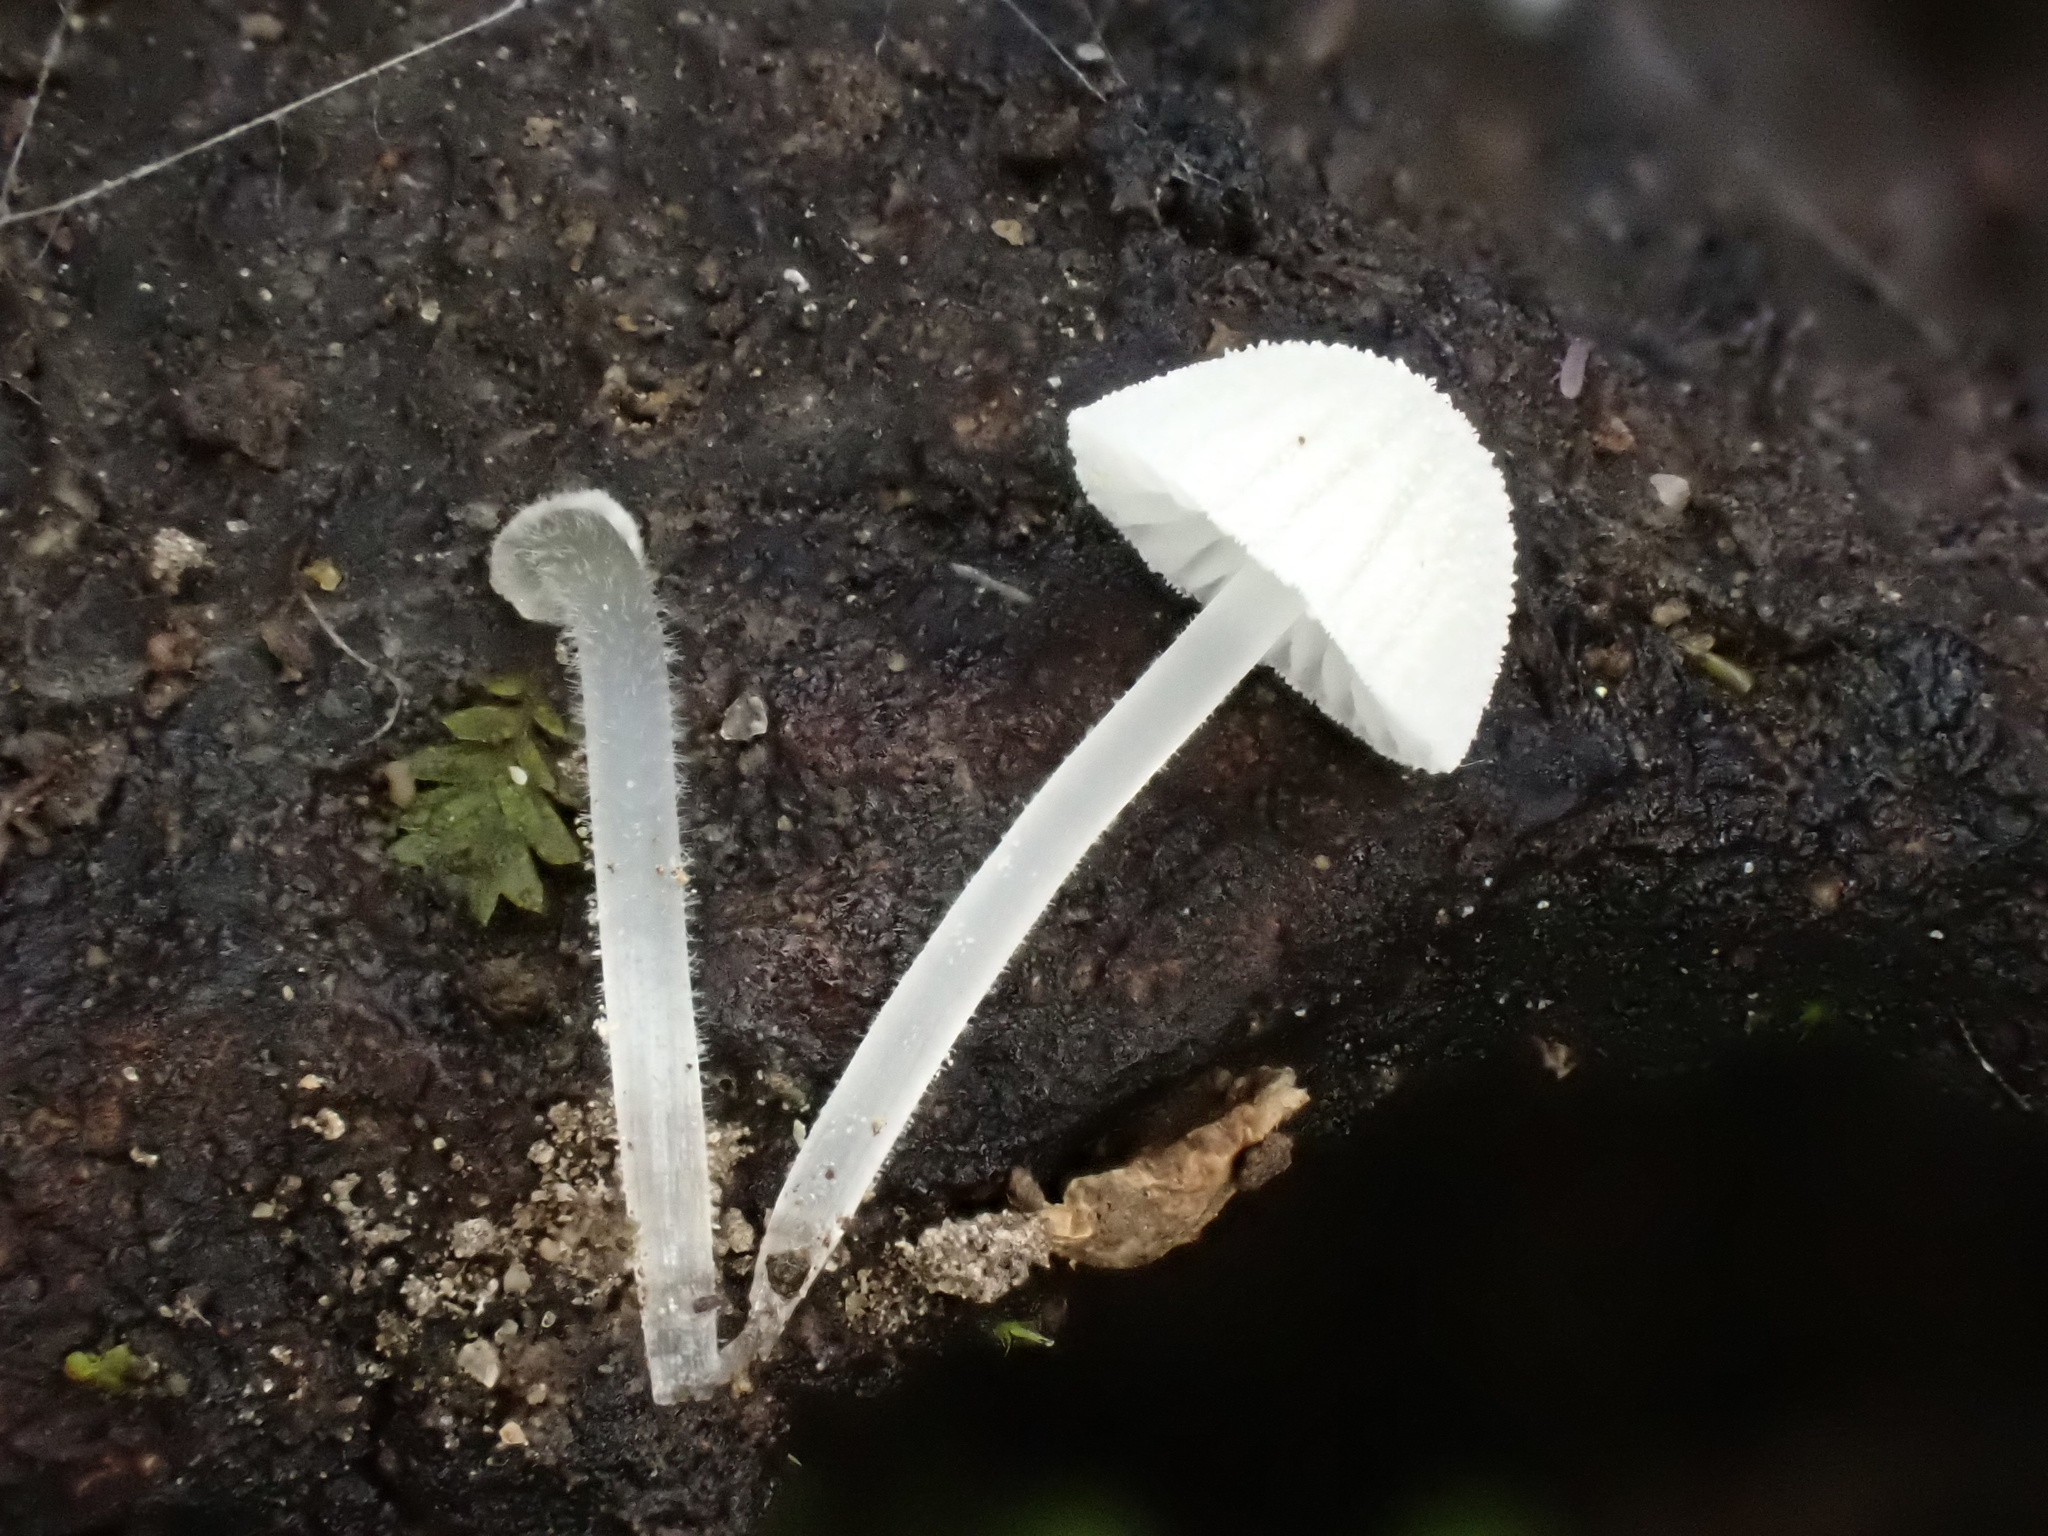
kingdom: Fungi
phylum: Basidiomycota
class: Agaricomycetes
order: Agaricales
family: Mycenaceae
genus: Mycena
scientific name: Mycena tenerrima
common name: Frosty bonnet
